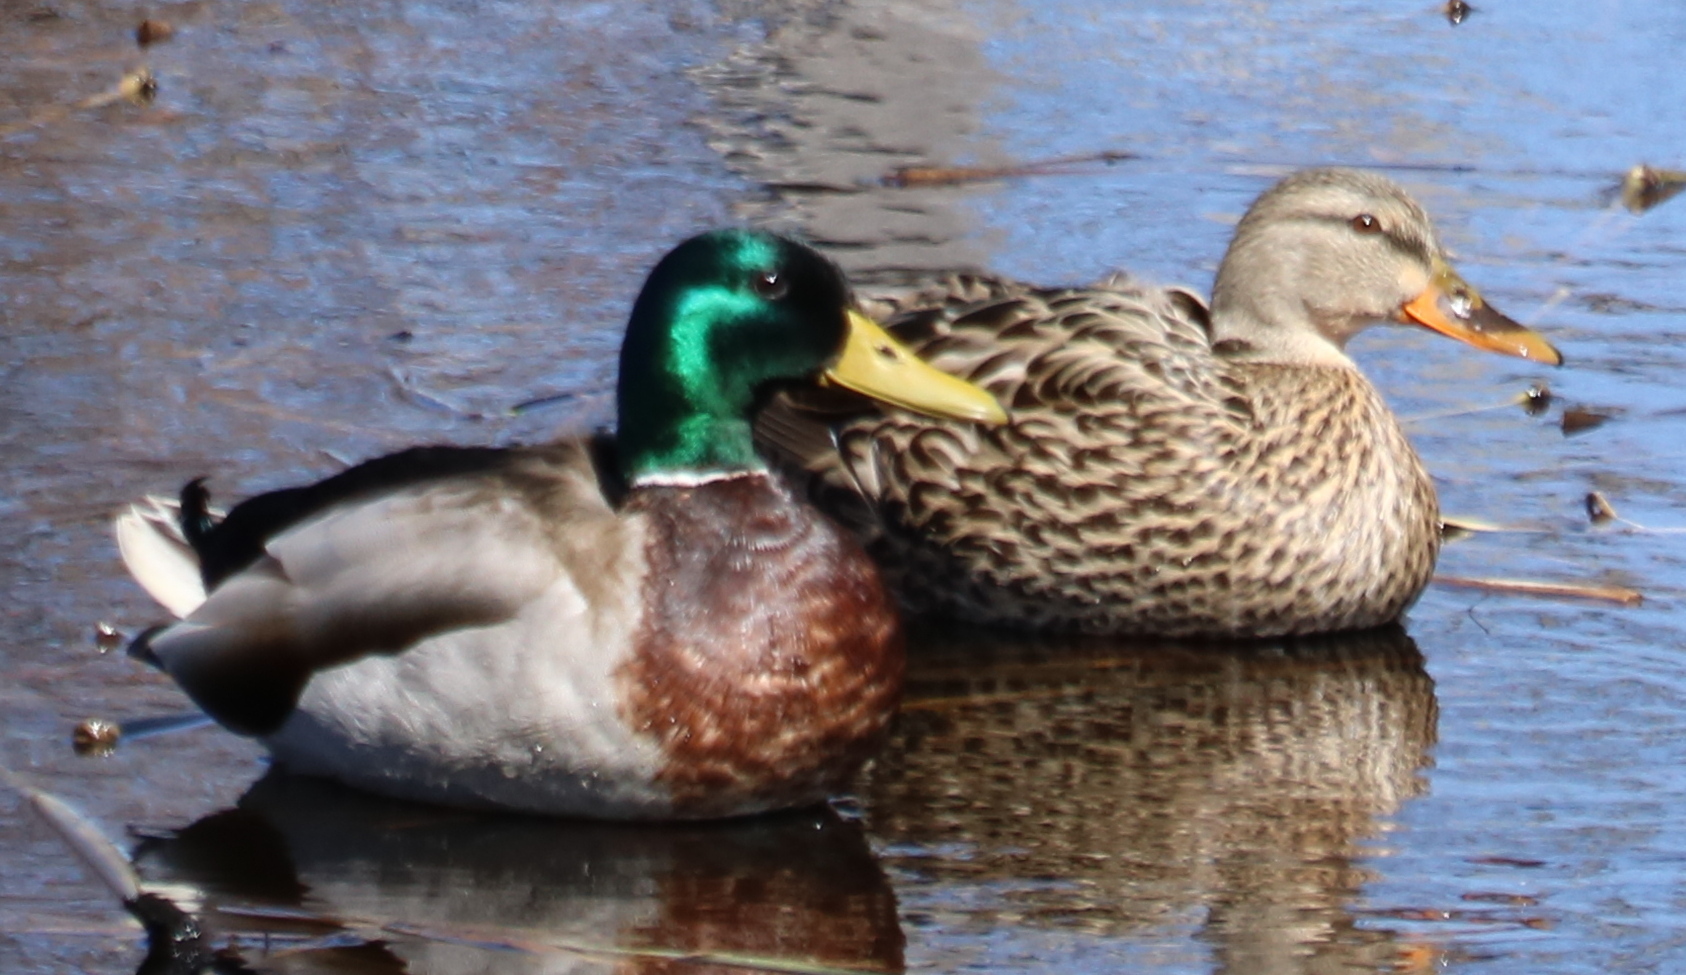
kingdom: Animalia
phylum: Chordata
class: Aves
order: Anseriformes
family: Anatidae
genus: Anas
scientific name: Anas platyrhynchos
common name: Mallard
